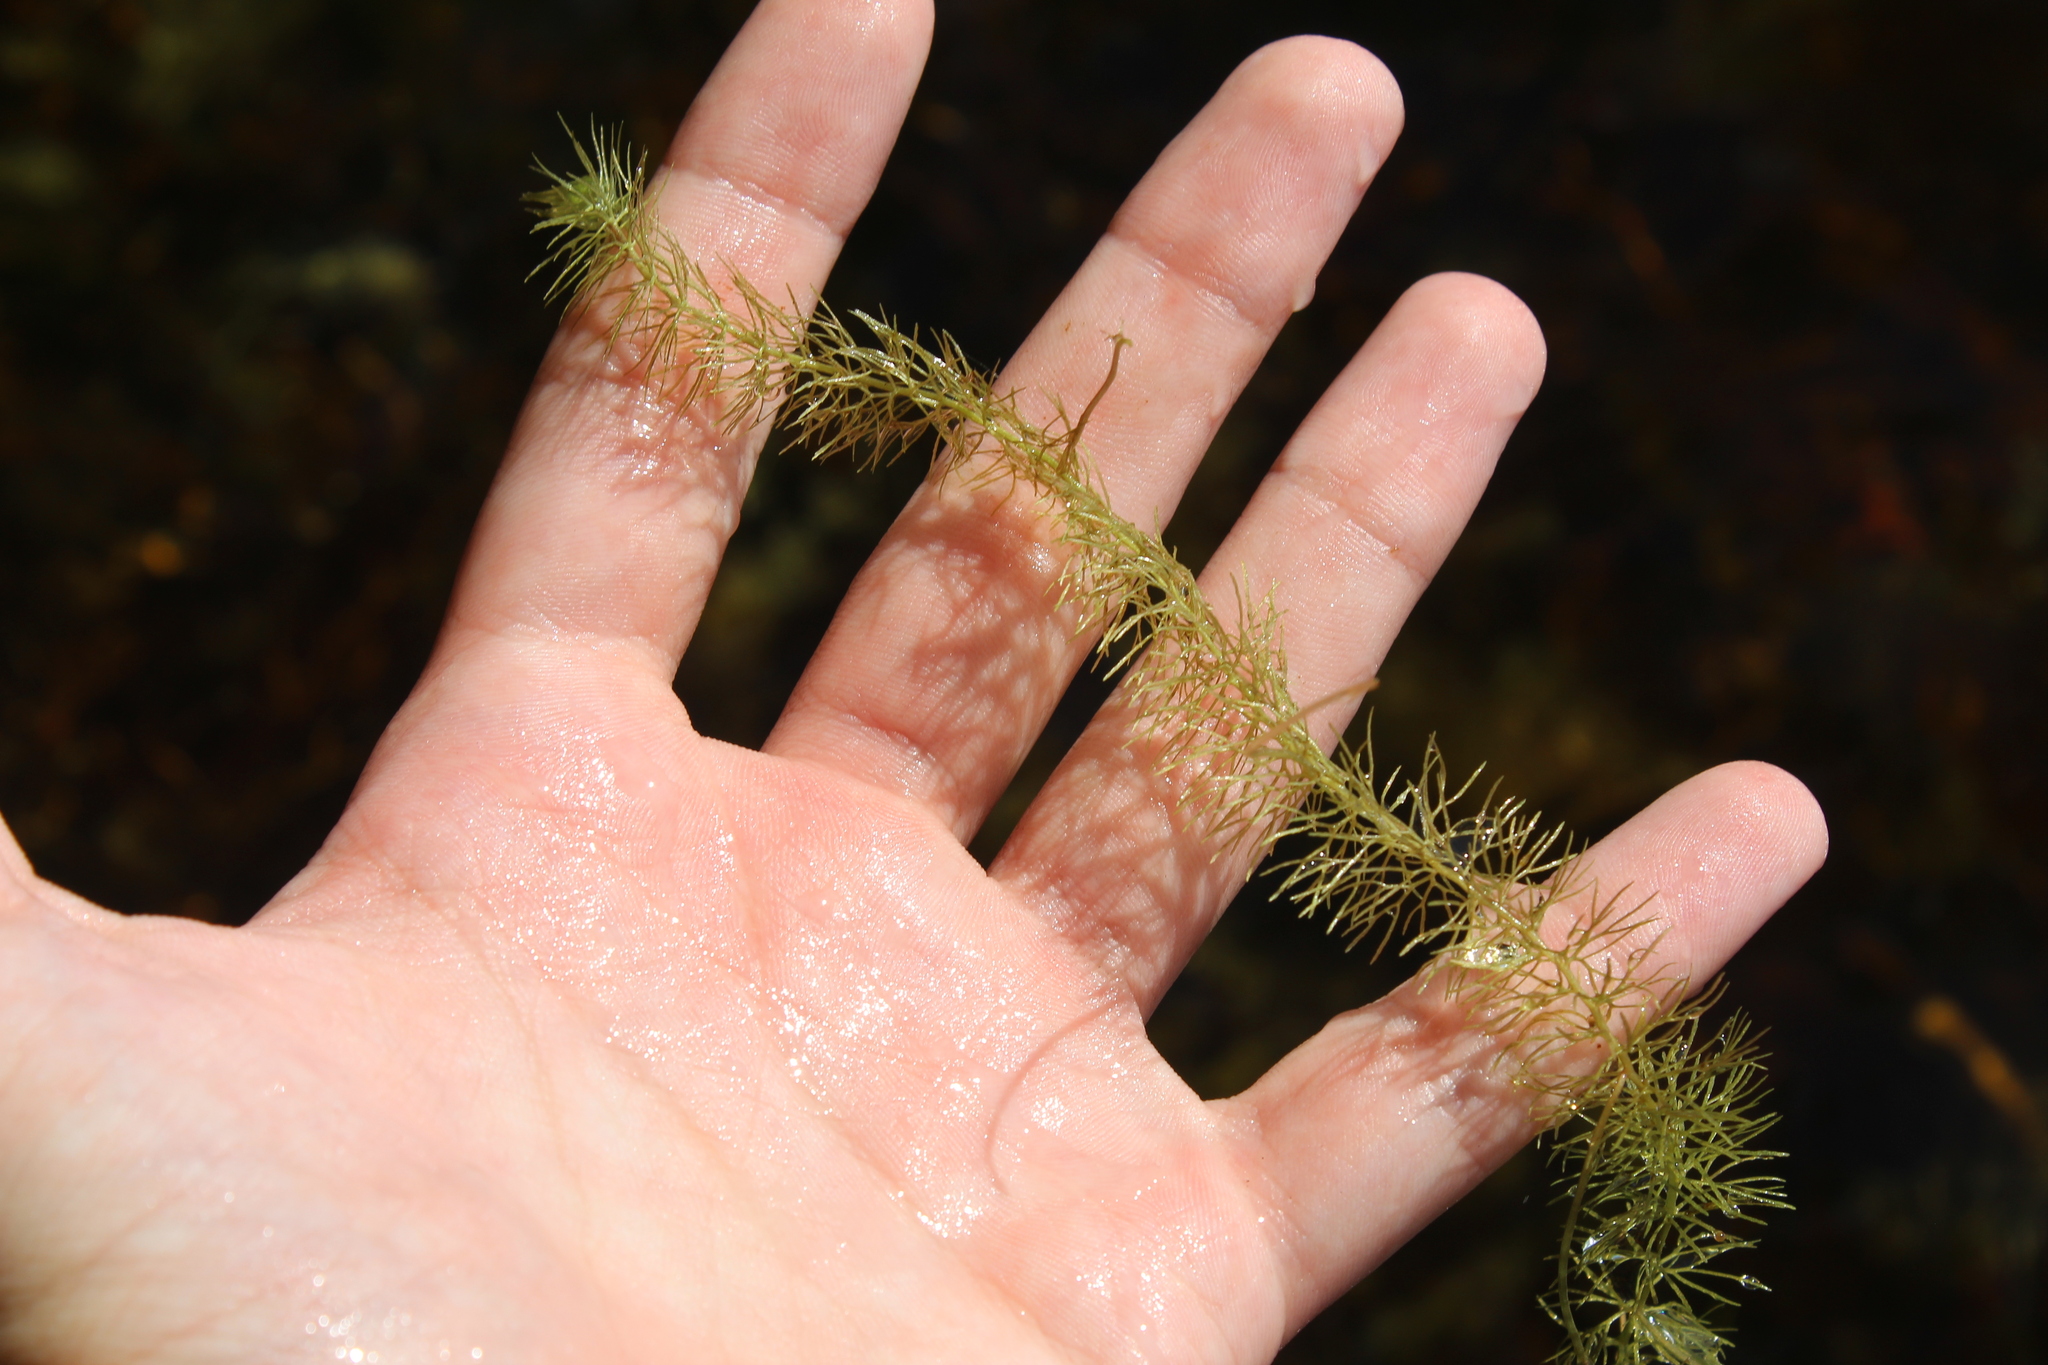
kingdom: Plantae
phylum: Tracheophyta
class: Magnoliopsida
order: Lamiales
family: Lentibulariaceae
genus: Utricularia
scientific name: Utricularia intermedia
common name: Intermediate bladderwort
